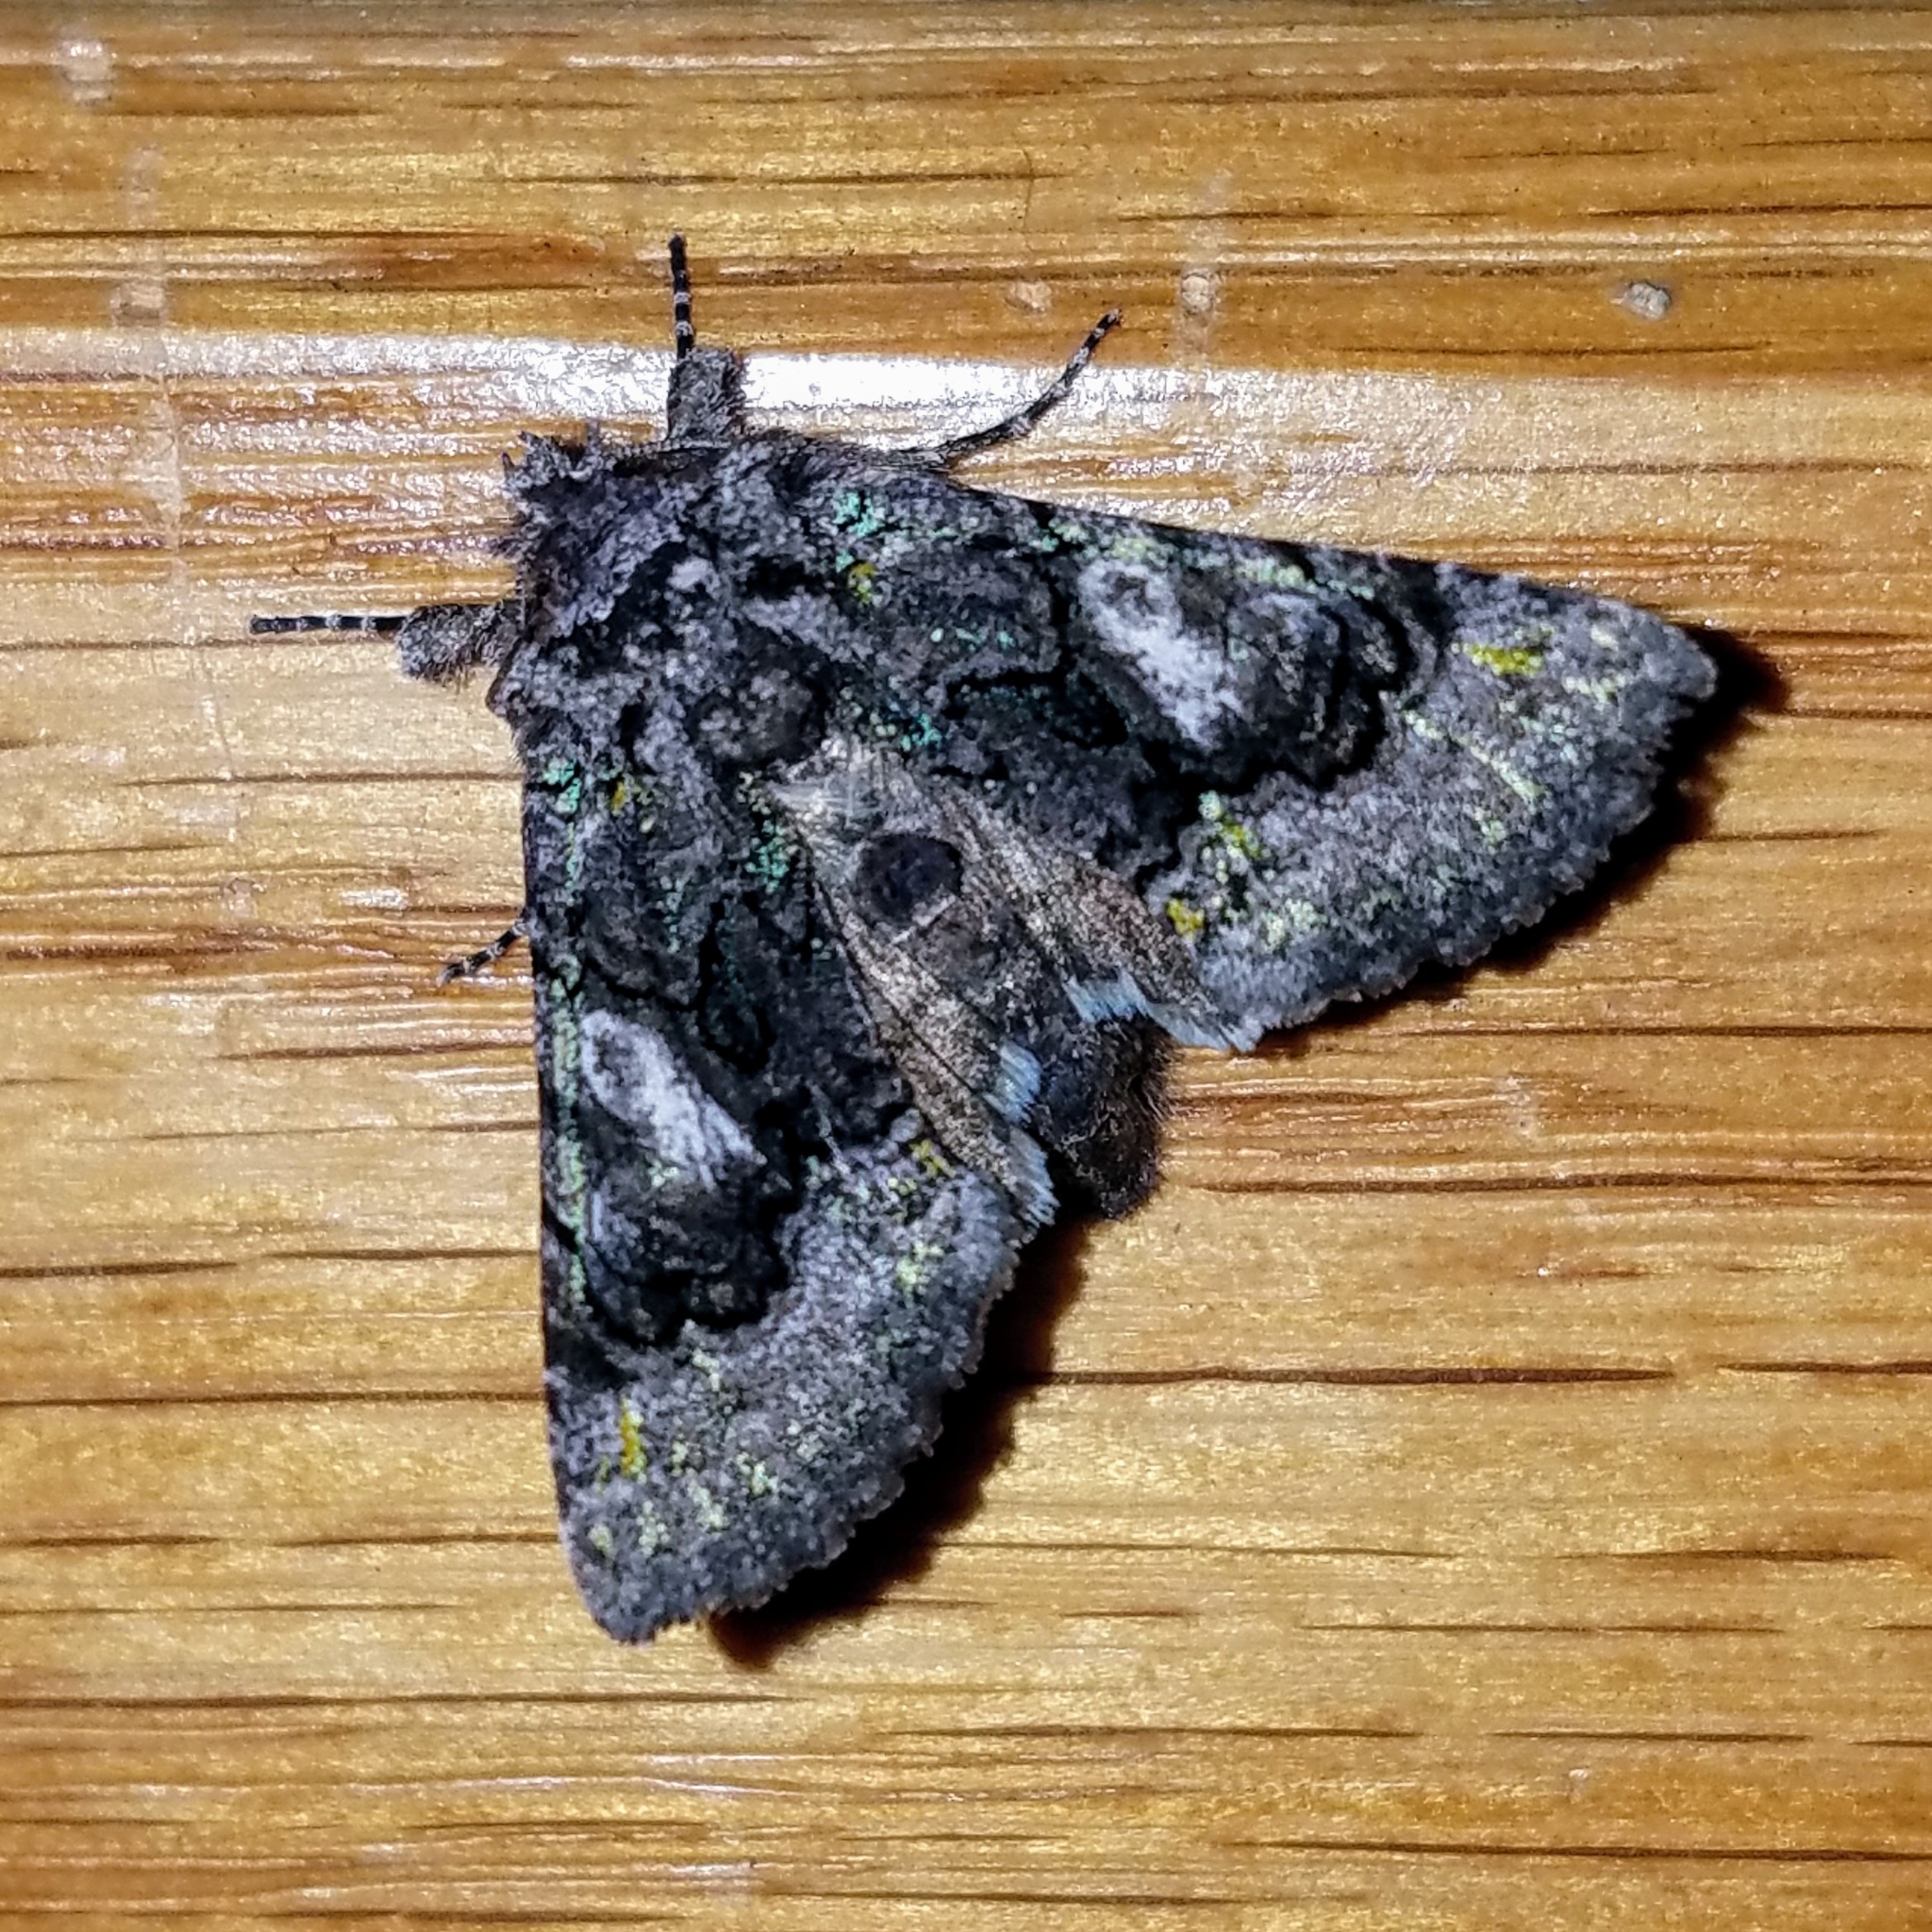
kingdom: Animalia
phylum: Arthropoda
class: Insecta
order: Lepidoptera
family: Noctuidae
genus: Behrensia
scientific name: Behrensia conchiformis
